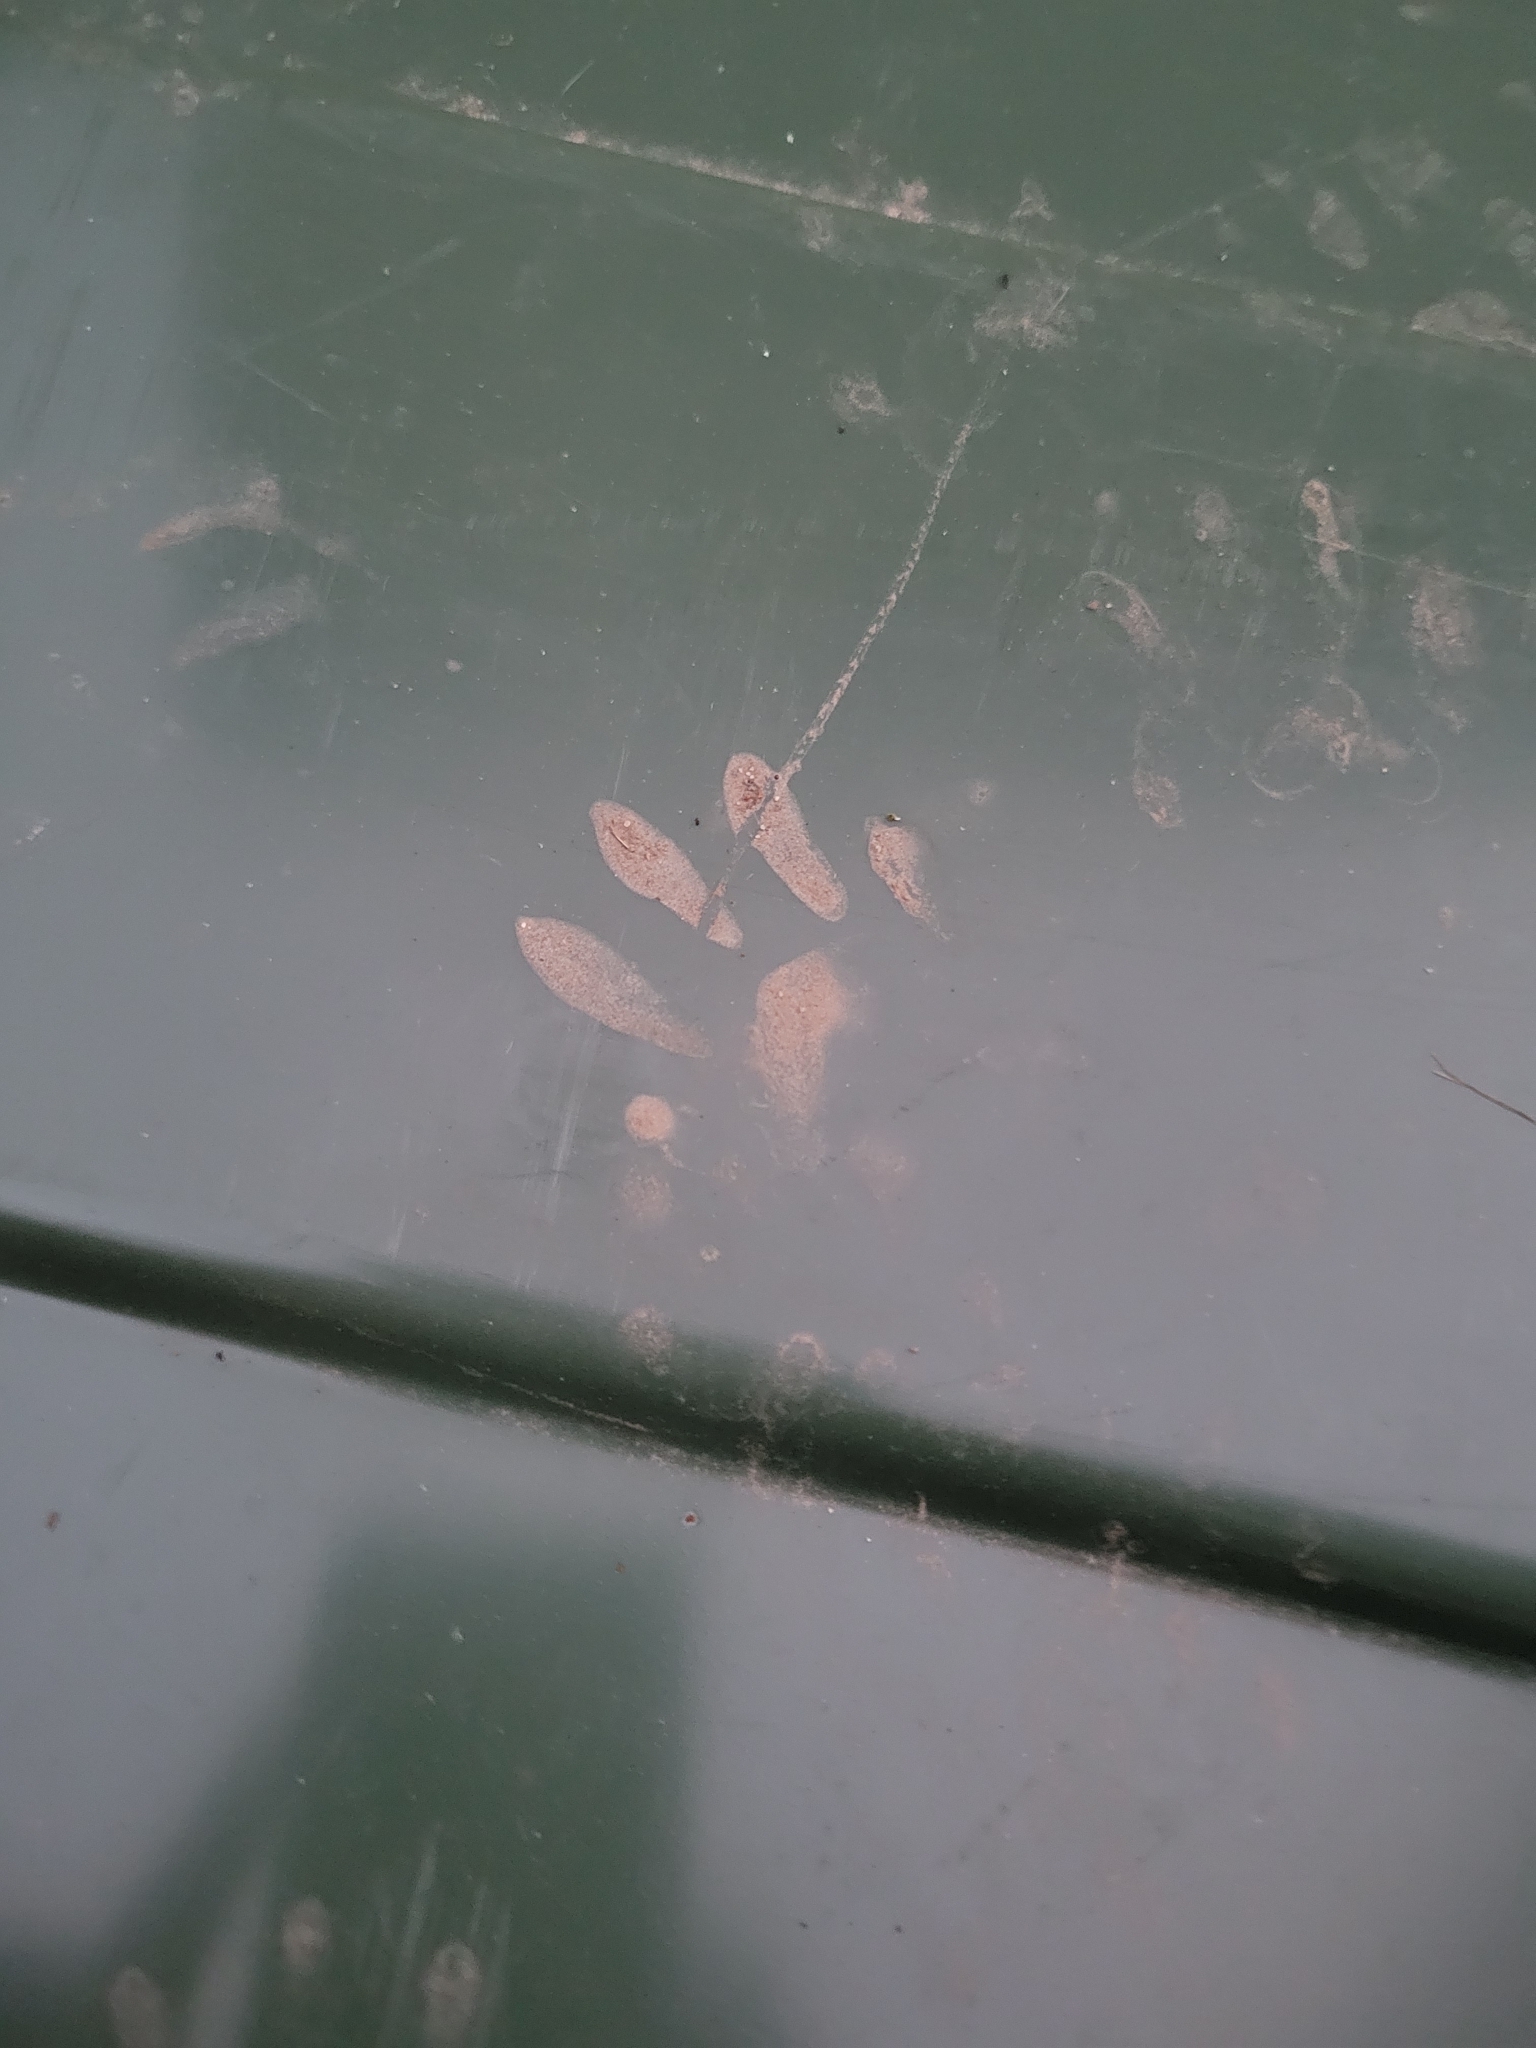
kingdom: Animalia
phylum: Chordata
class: Mammalia
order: Carnivora
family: Procyonidae
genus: Procyon
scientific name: Procyon lotor
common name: Raccoon
